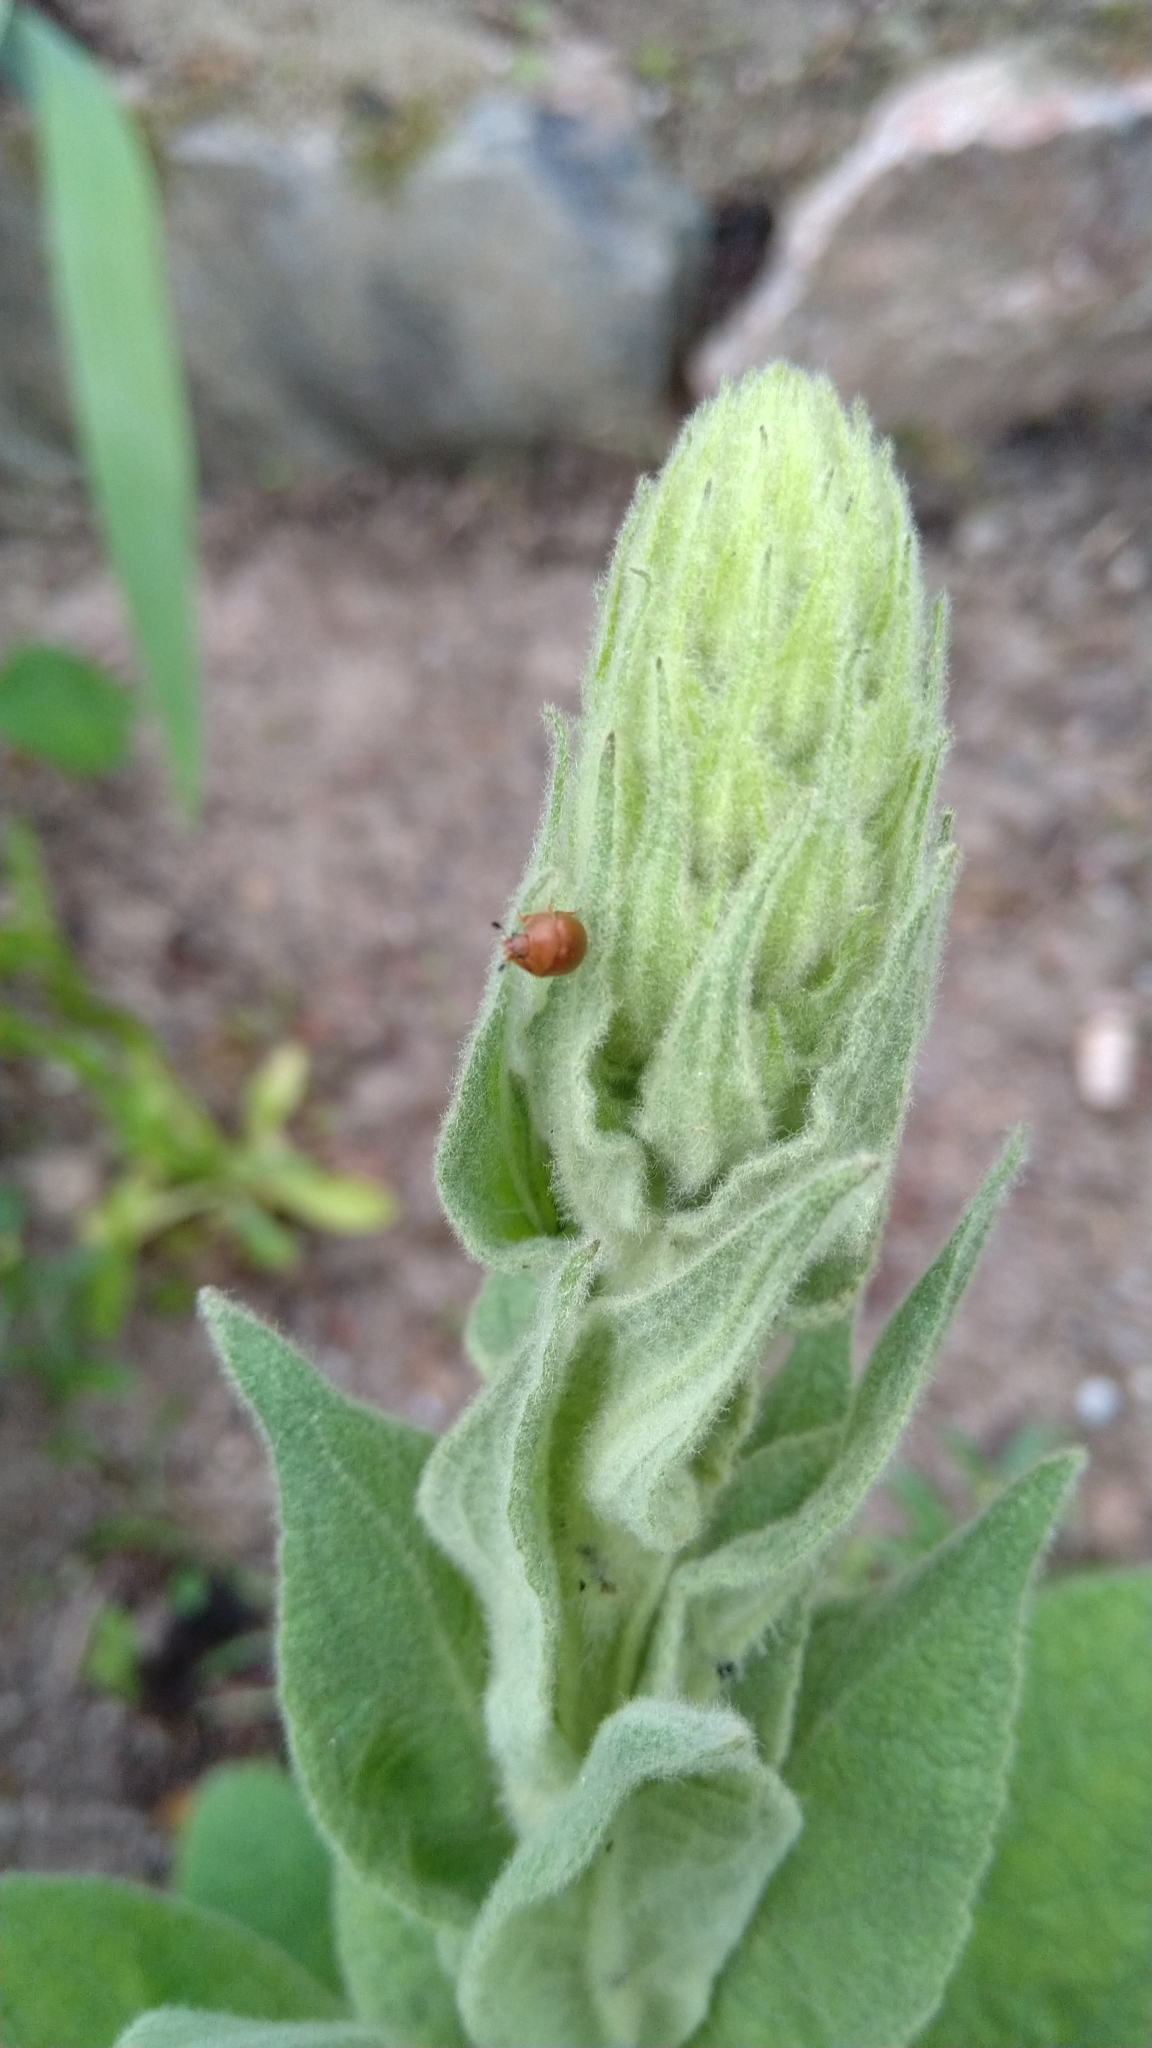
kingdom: Animalia
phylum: Arthropoda
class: Insecta
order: Coleoptera
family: Nitidulidae
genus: Cychramus
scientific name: Cychramus luteus
